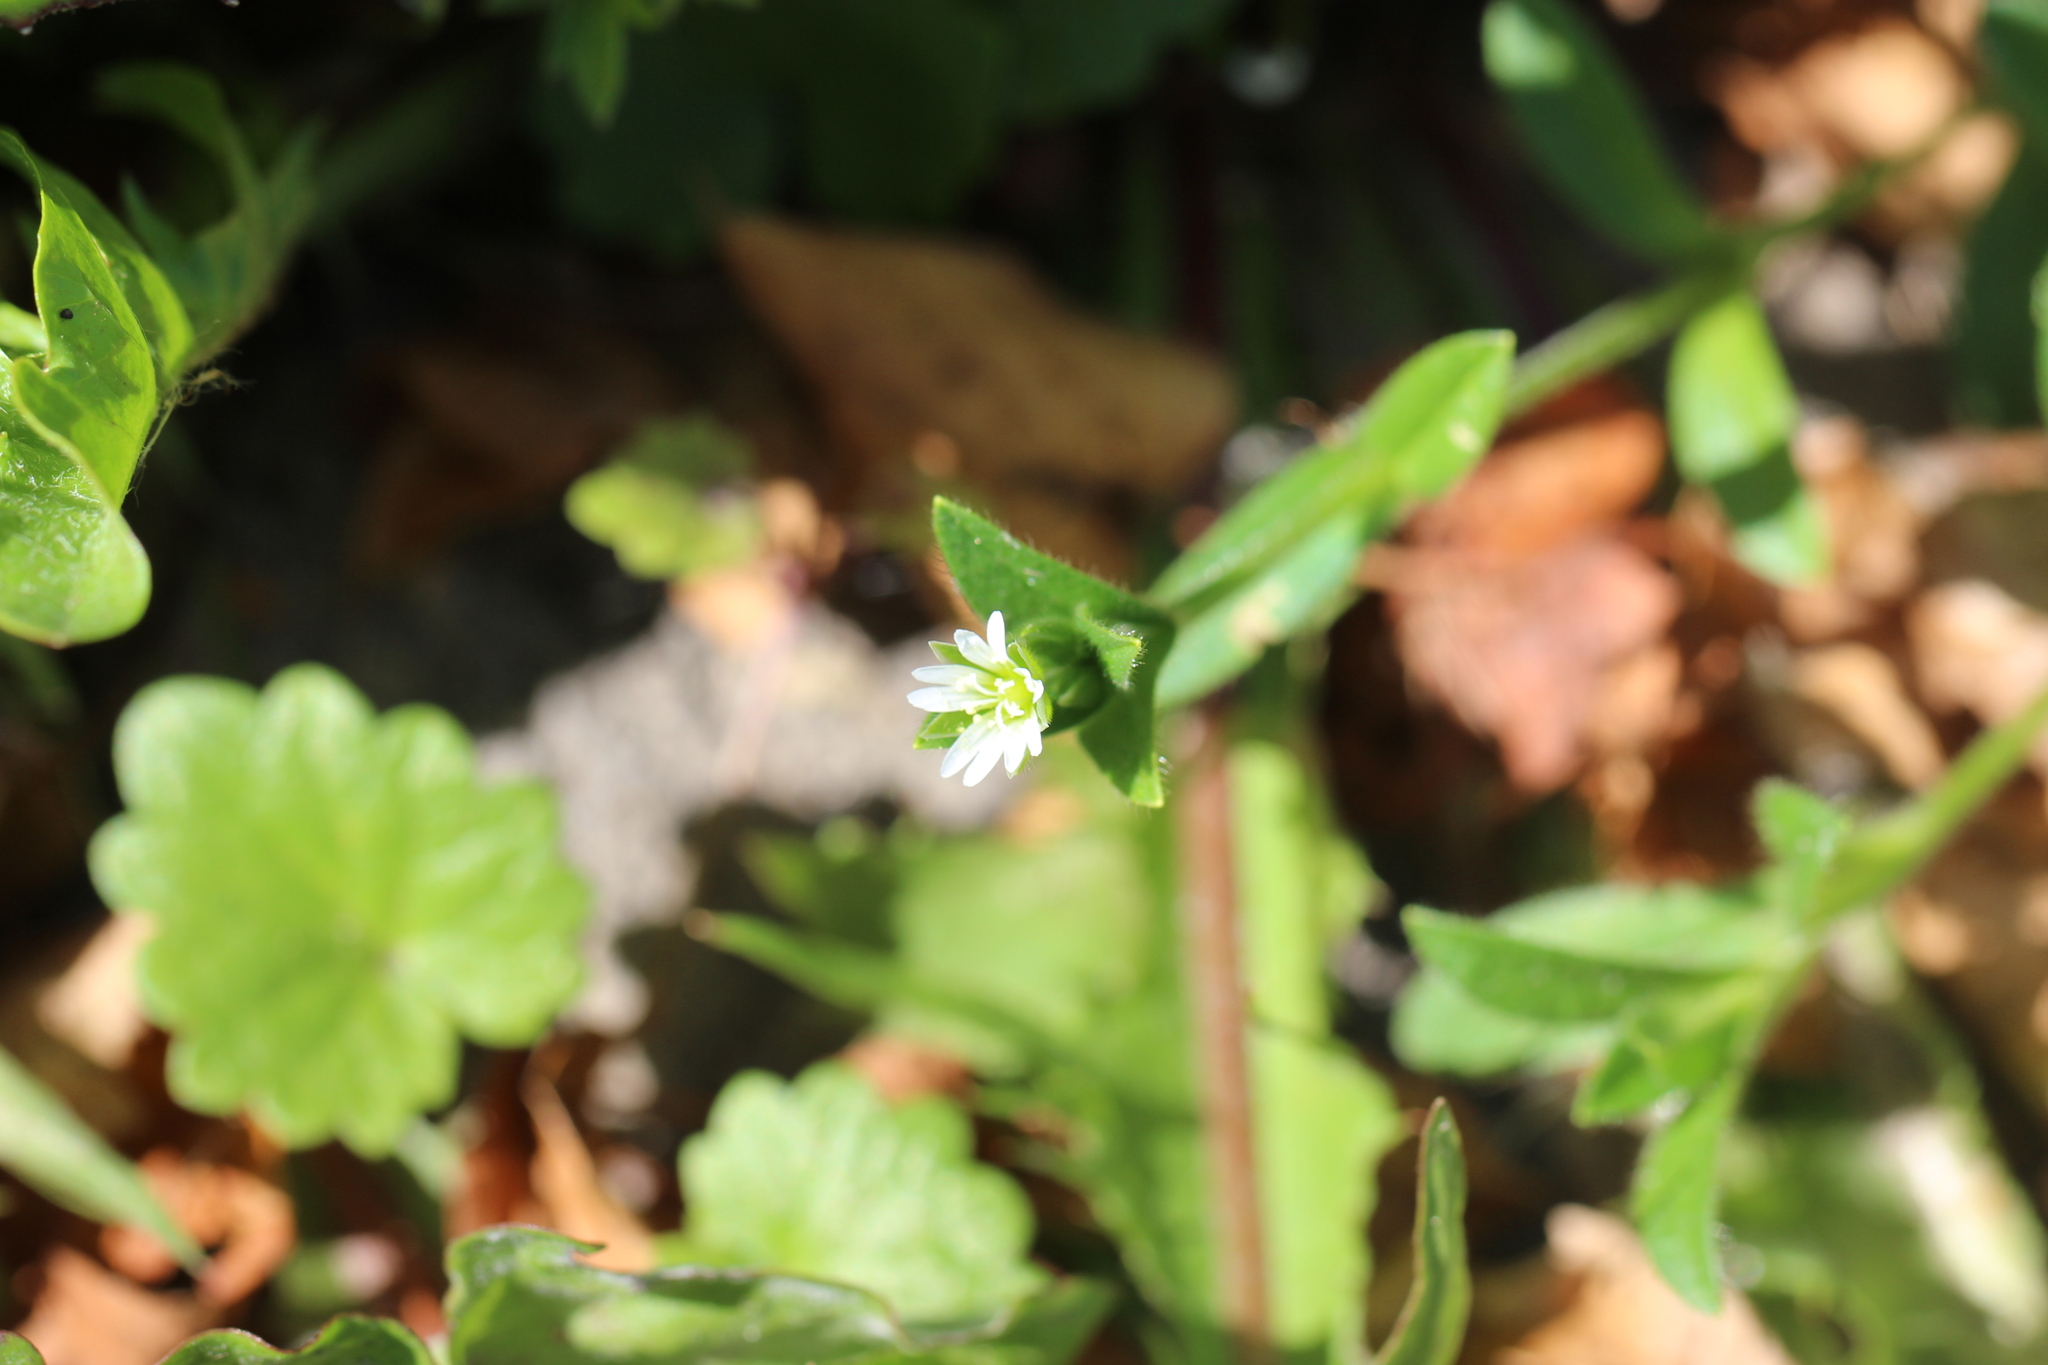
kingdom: Plantae
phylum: Tracheophyta
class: Magnoliopsida
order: Caryophyllales
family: Caryophyllaceae
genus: Cerastium
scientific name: Cerastium holosteoides
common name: Big chickweed
